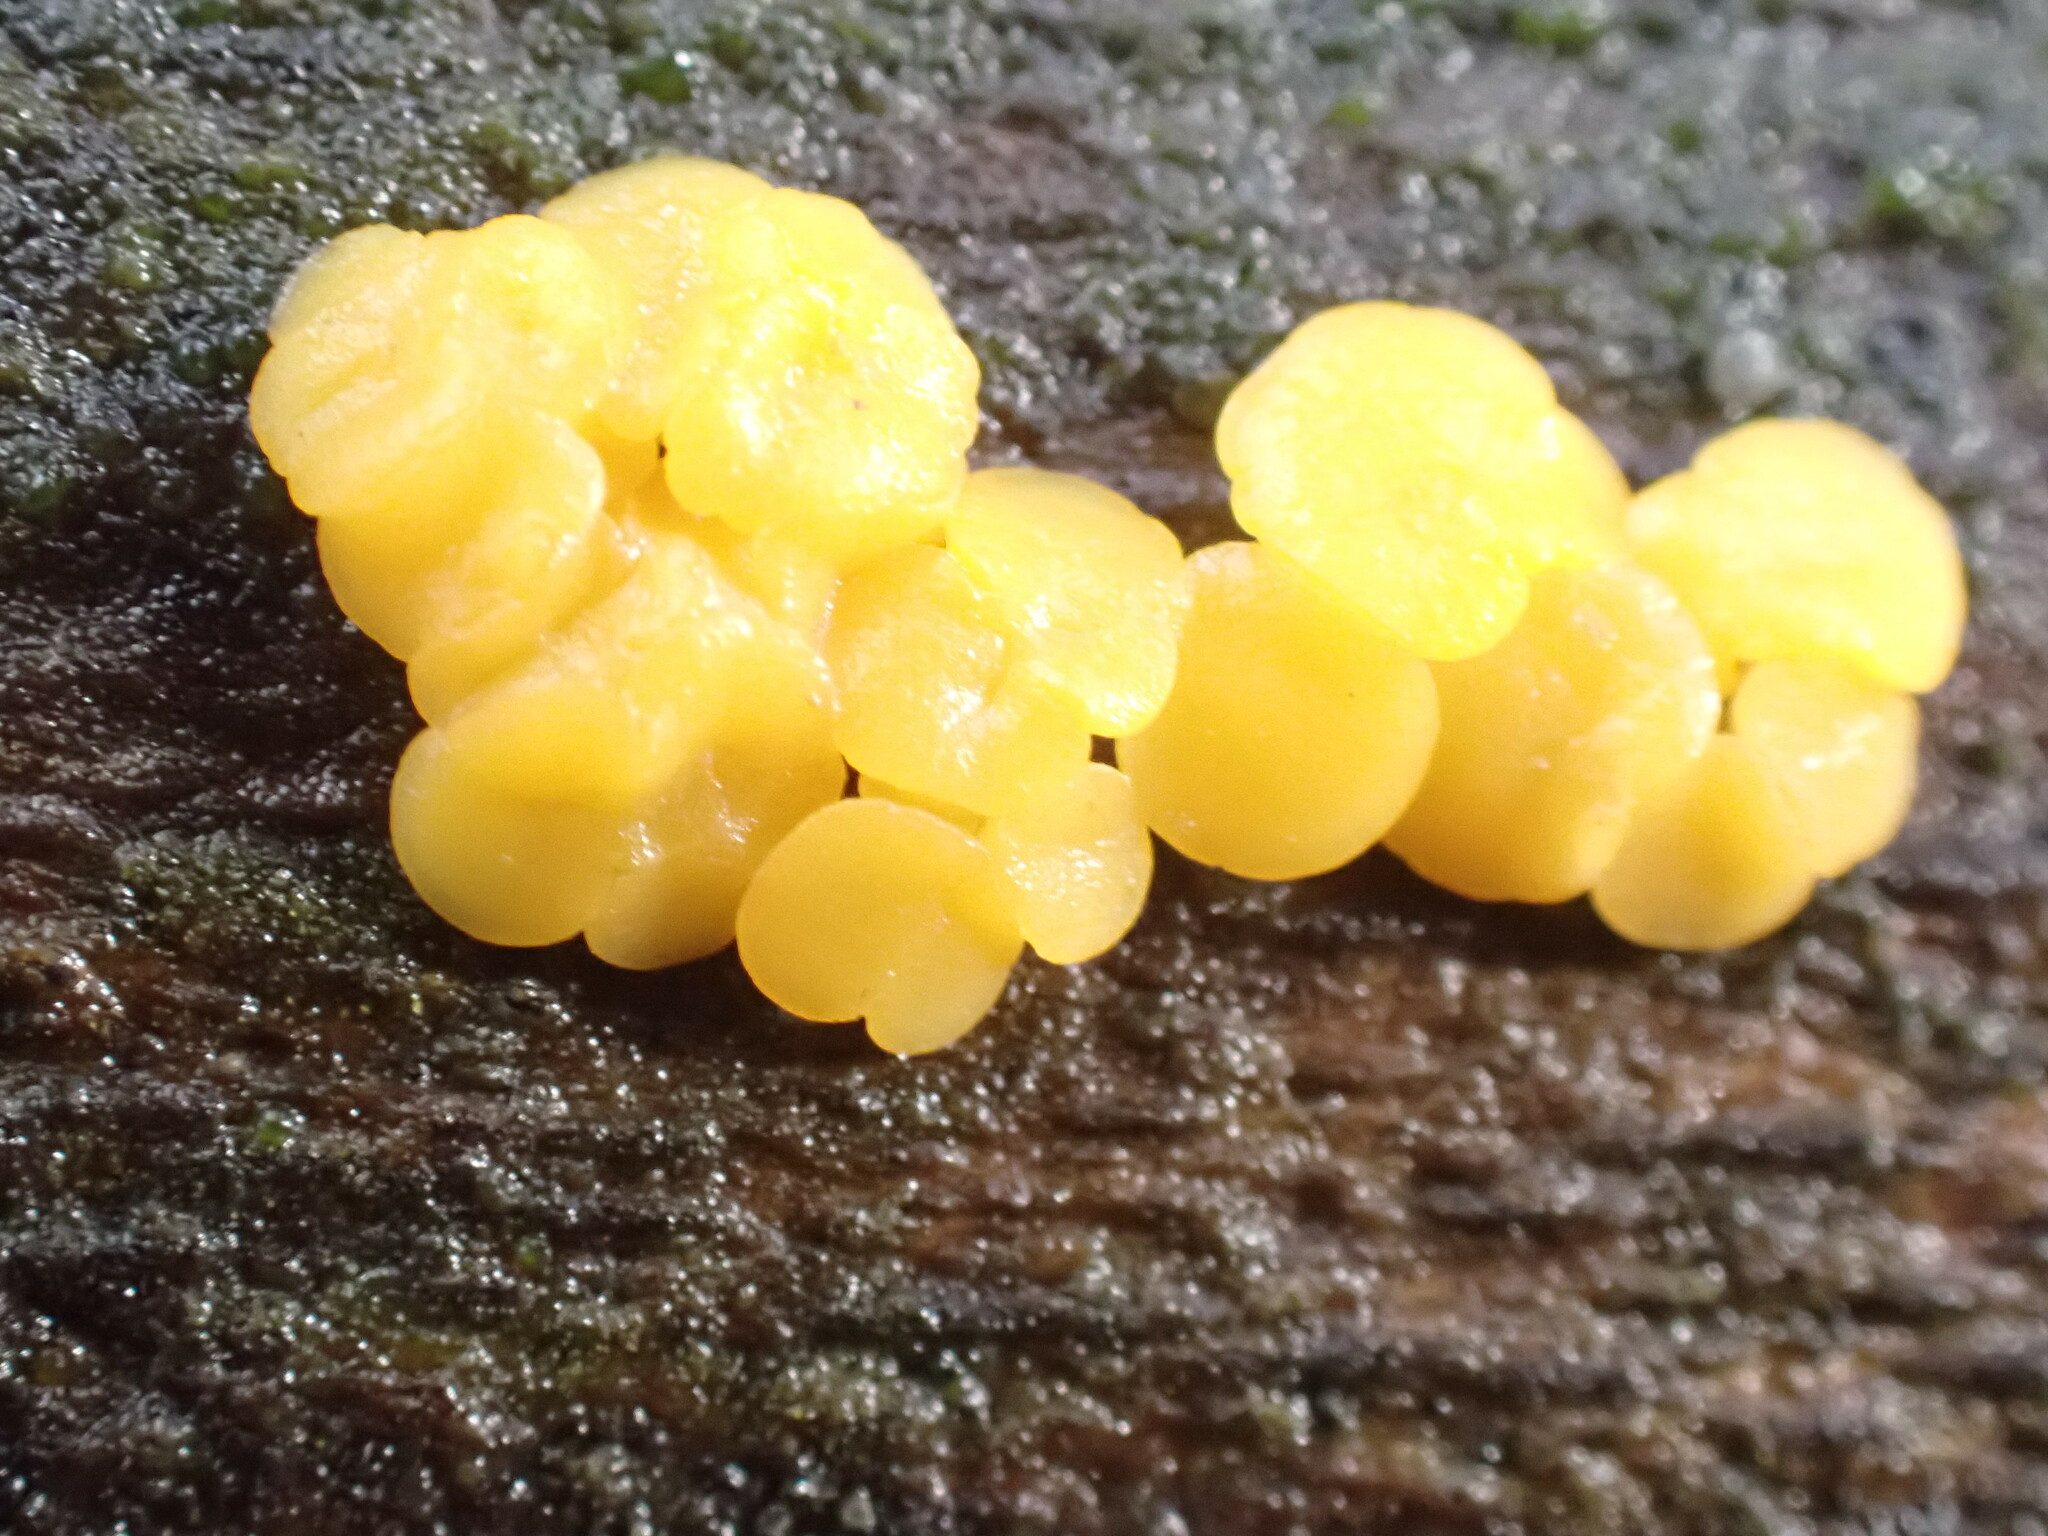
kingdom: Fungi
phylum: Ascomycota
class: Leotiomycetes
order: Helotiales
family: Pezizellaceae
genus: Calycina
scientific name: Calycina citrina
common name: Yellow fairy cups
